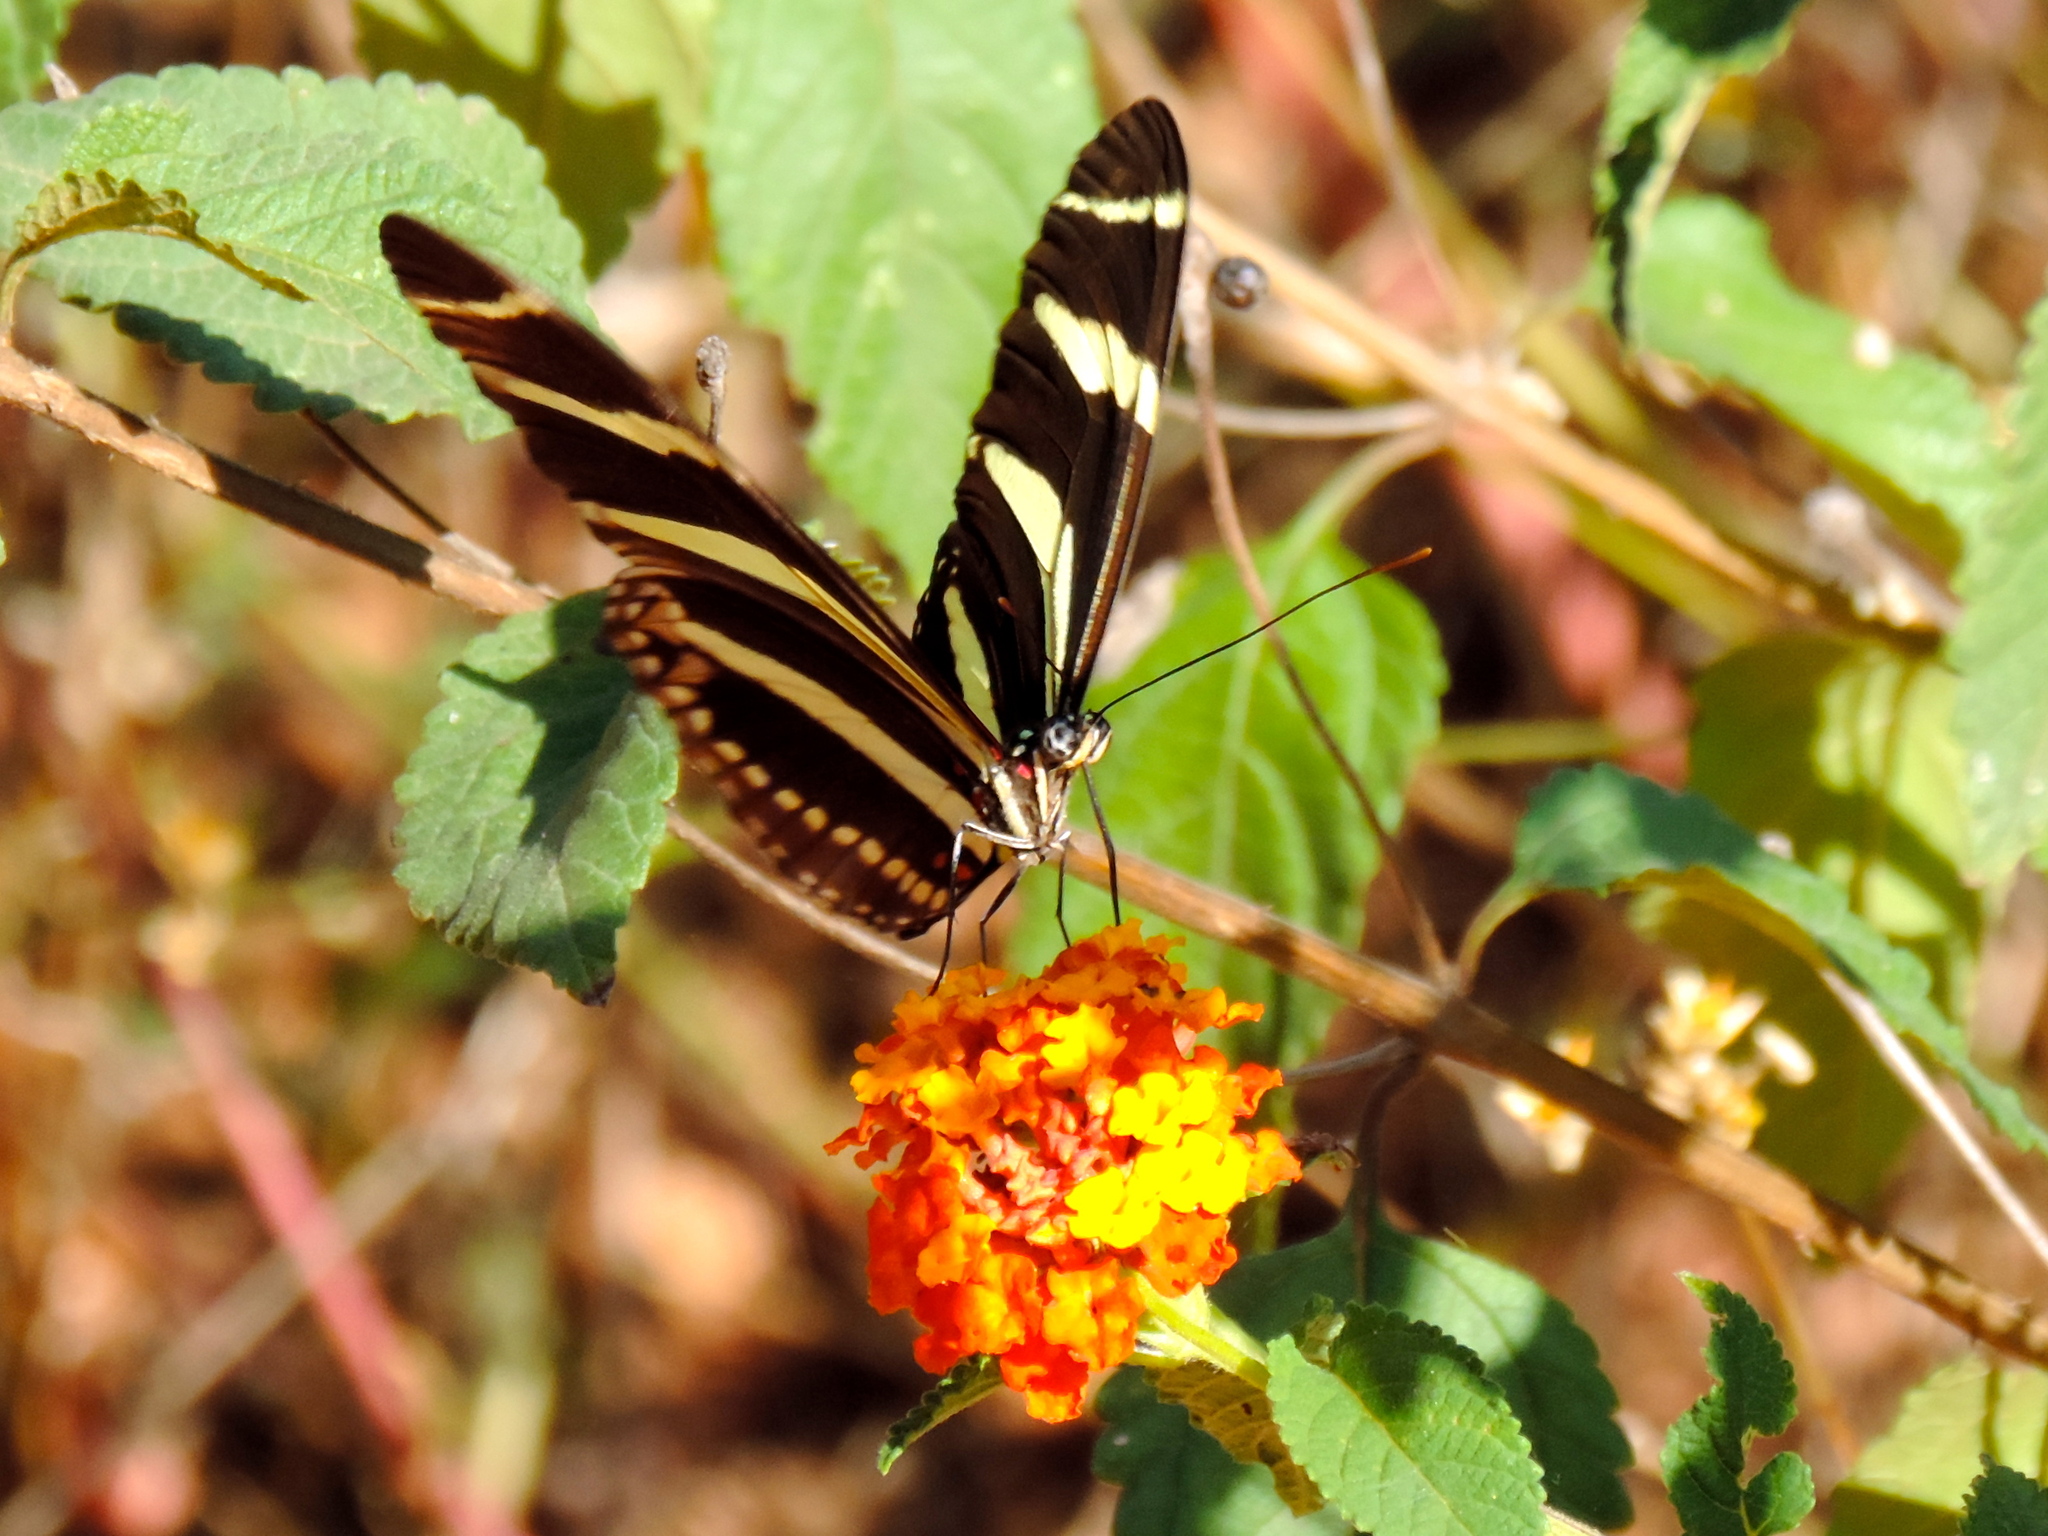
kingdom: Animalia
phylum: Arthropoda
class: Insecta
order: Lepidoptera
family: Nymphalidae
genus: Heliconius
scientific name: Heliconius charithonia
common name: Zebra long wing
